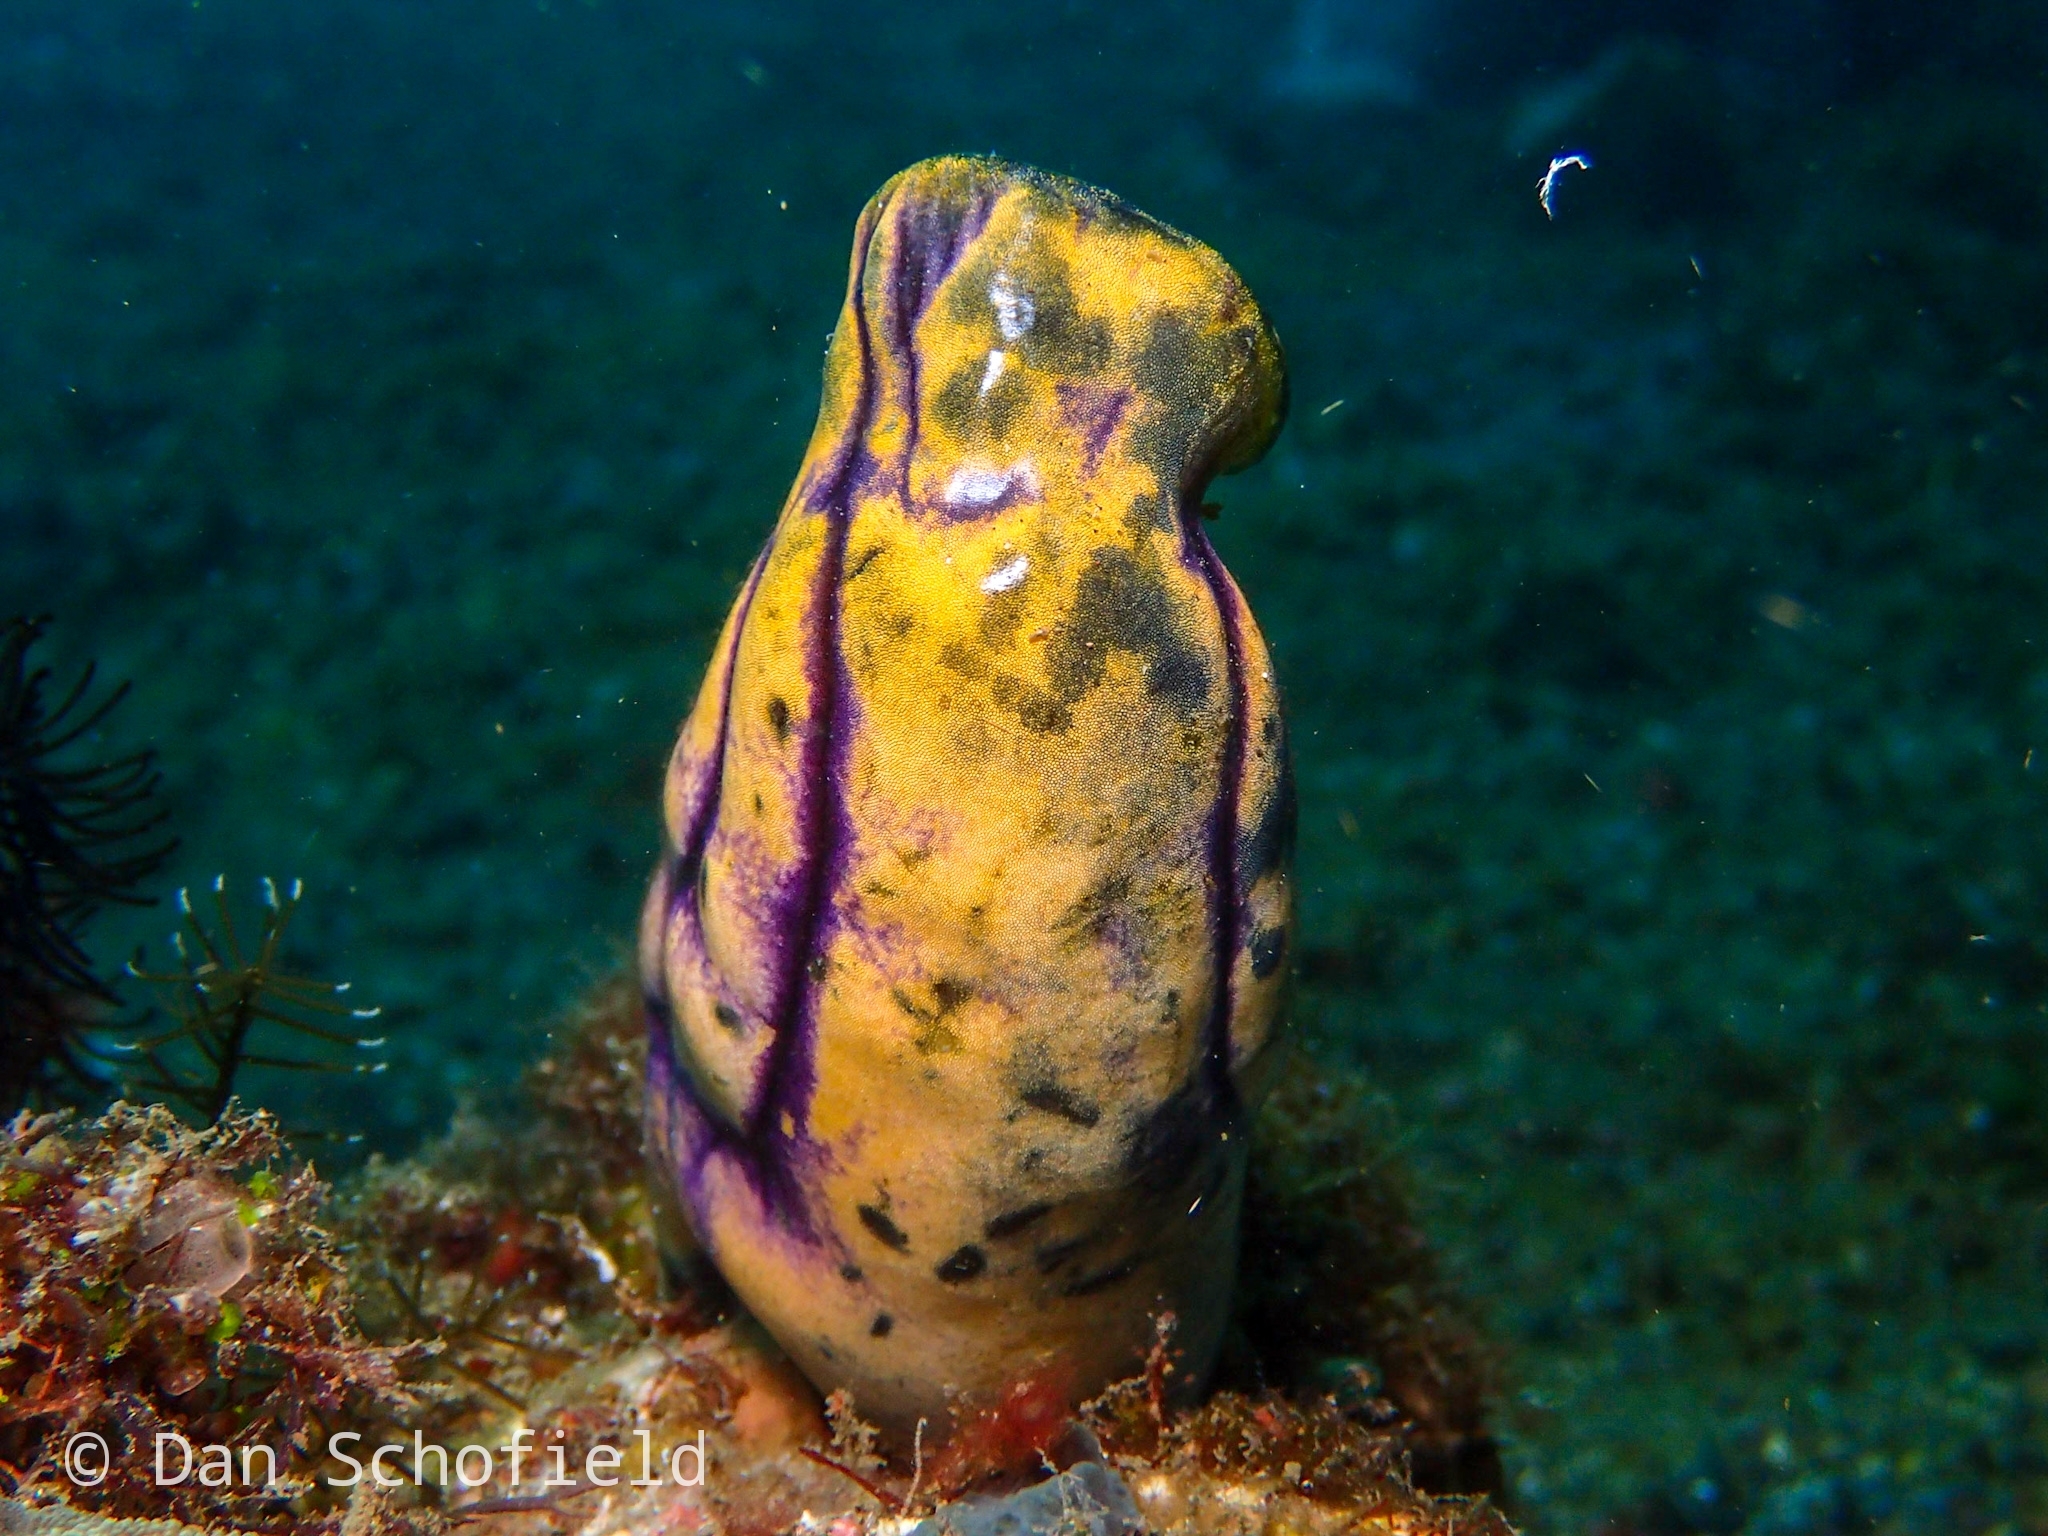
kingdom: Animalia
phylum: Chordata
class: Ascidiacea
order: Stolidobranchia
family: Styelidae
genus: Polycarpa
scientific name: Polycarpa aurata
